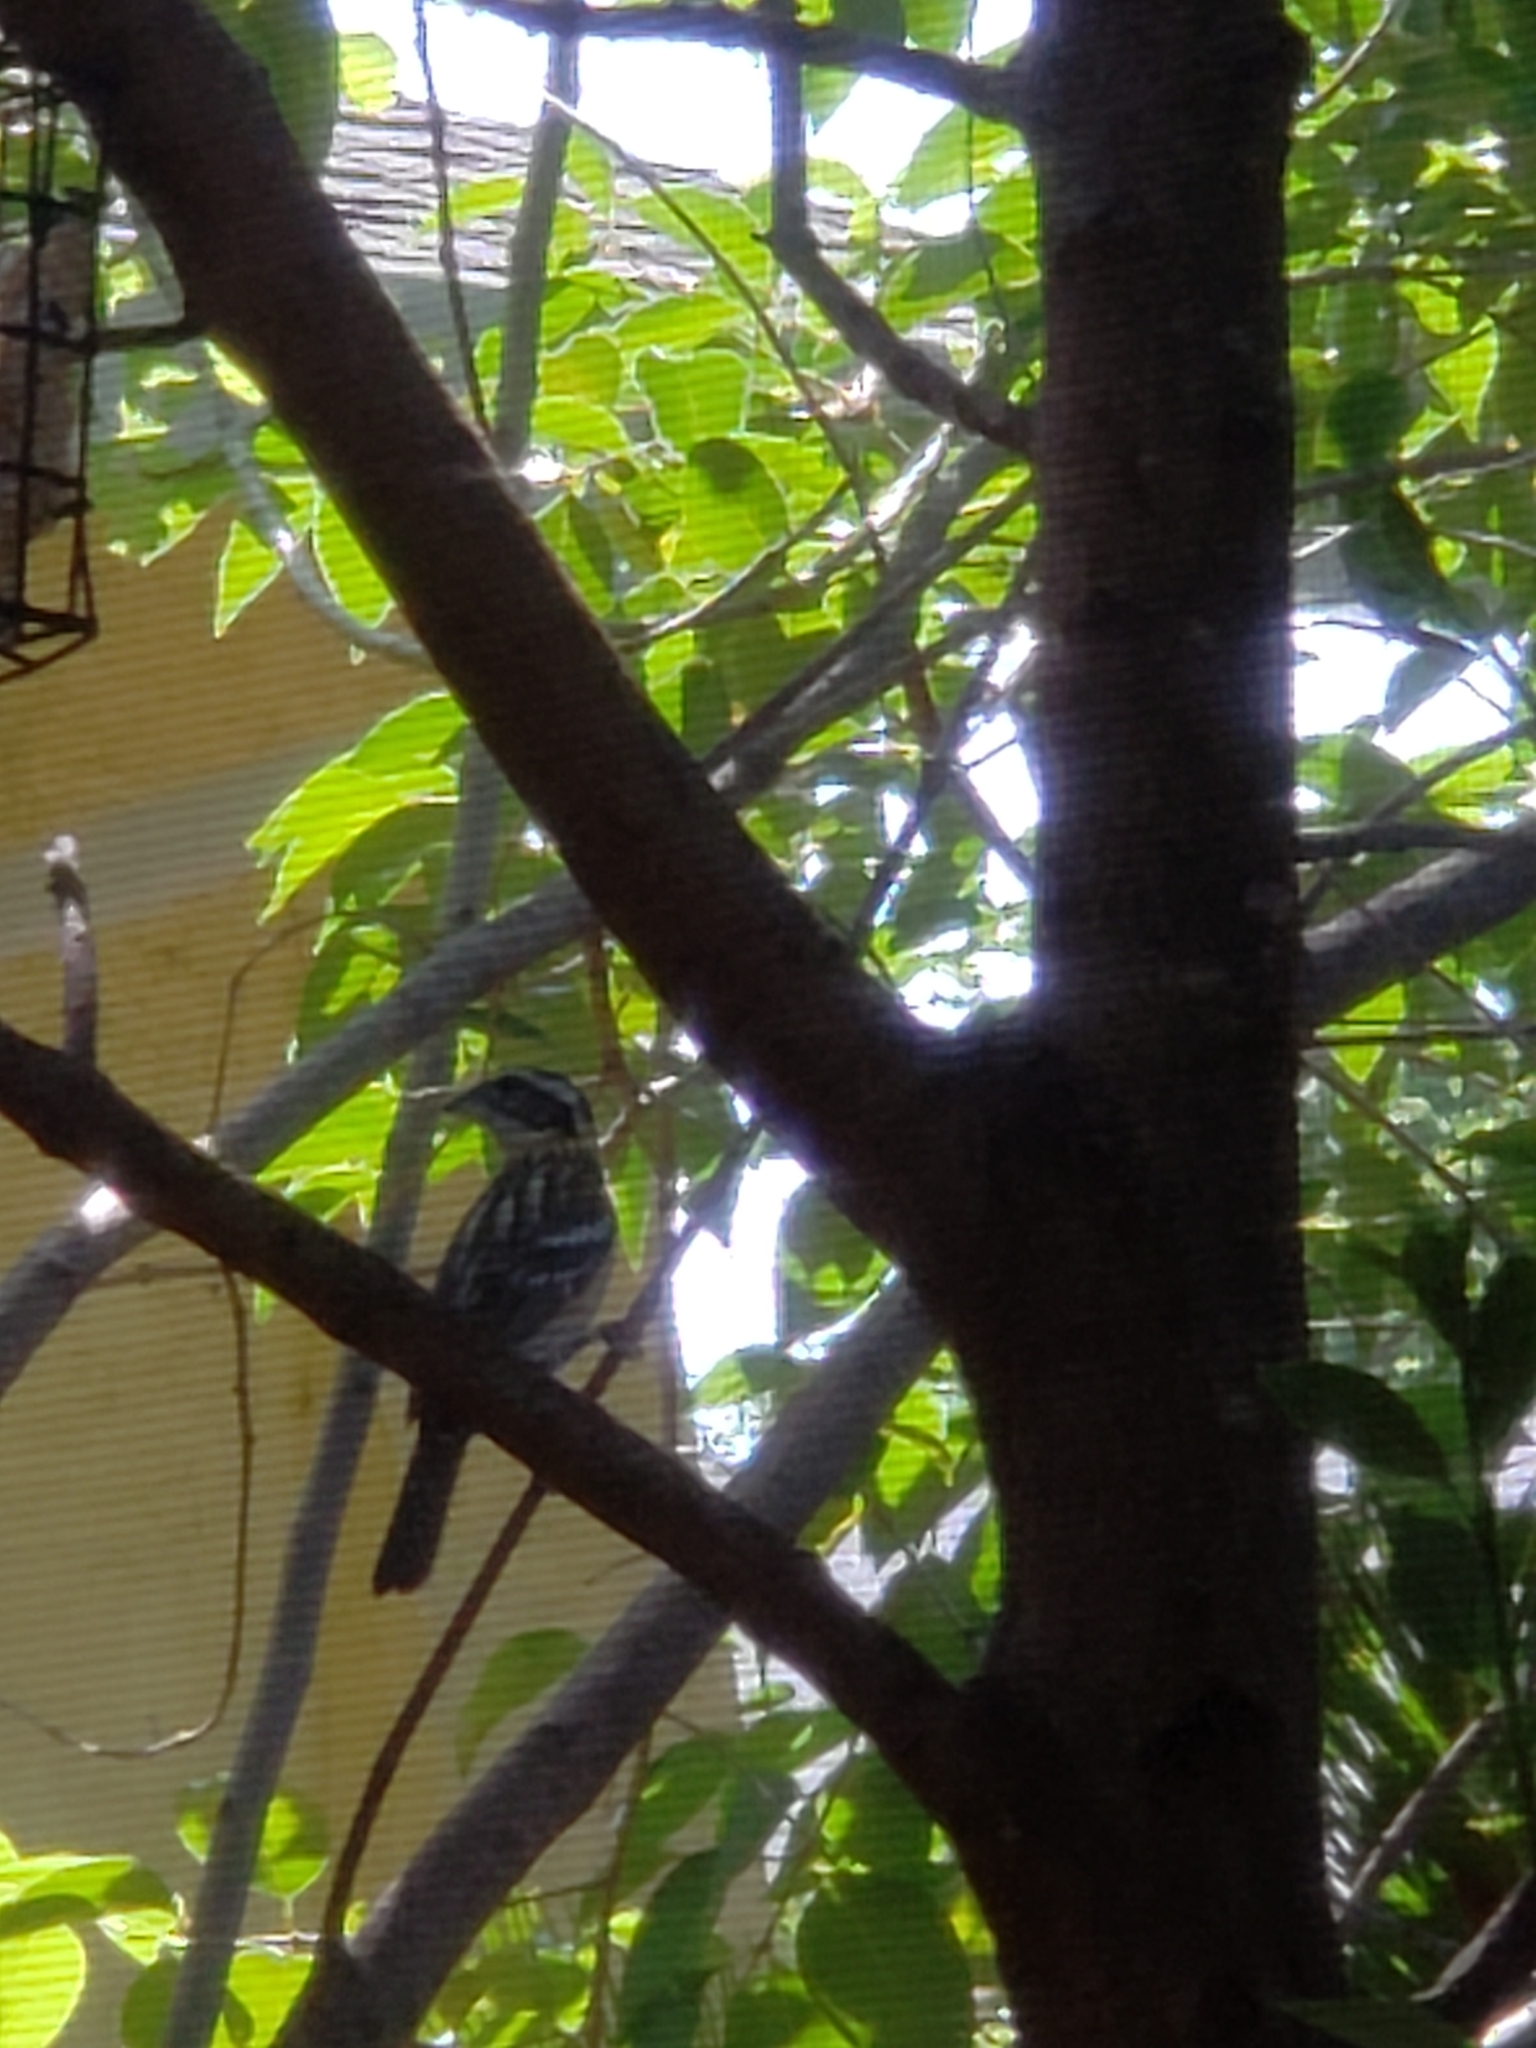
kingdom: Animalia
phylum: Chordata
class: Aves
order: Passeriformes
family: Cardinalidae
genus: Pheucticus
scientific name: Pheucticus melanocephalus
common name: Black-headed grosbeak
